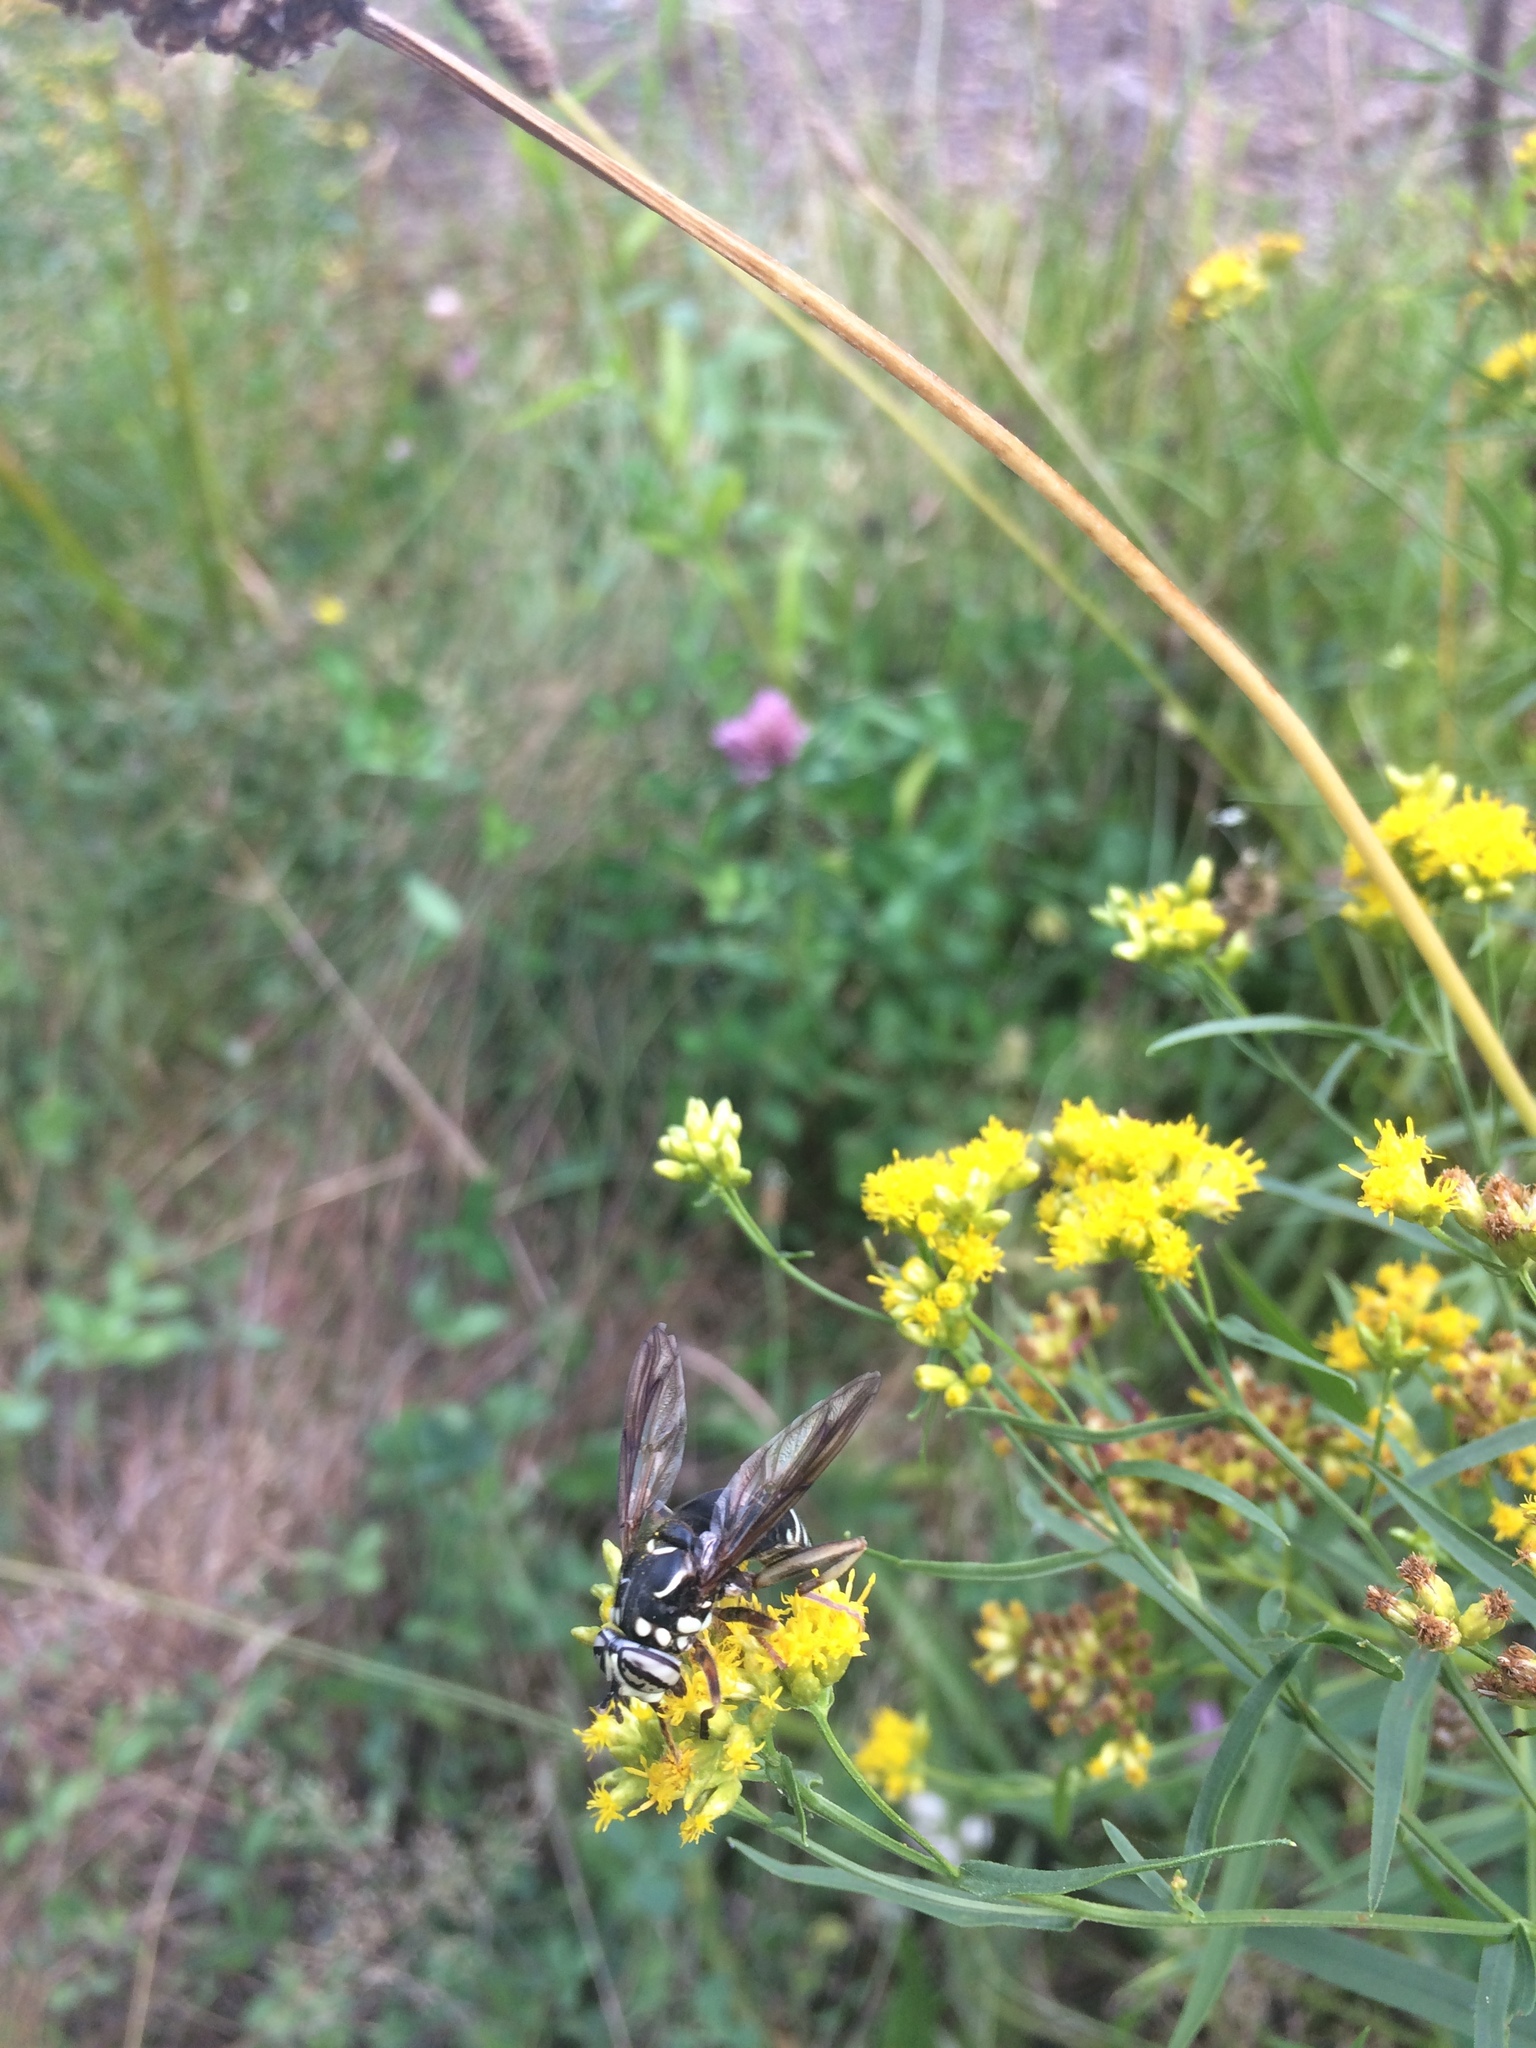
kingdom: Animalia
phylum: Arthropoda
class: Insecta
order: Diptera
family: Syrphidae
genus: Spilomyia
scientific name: Spilomyia fusca
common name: Bald-faced hornet fly
